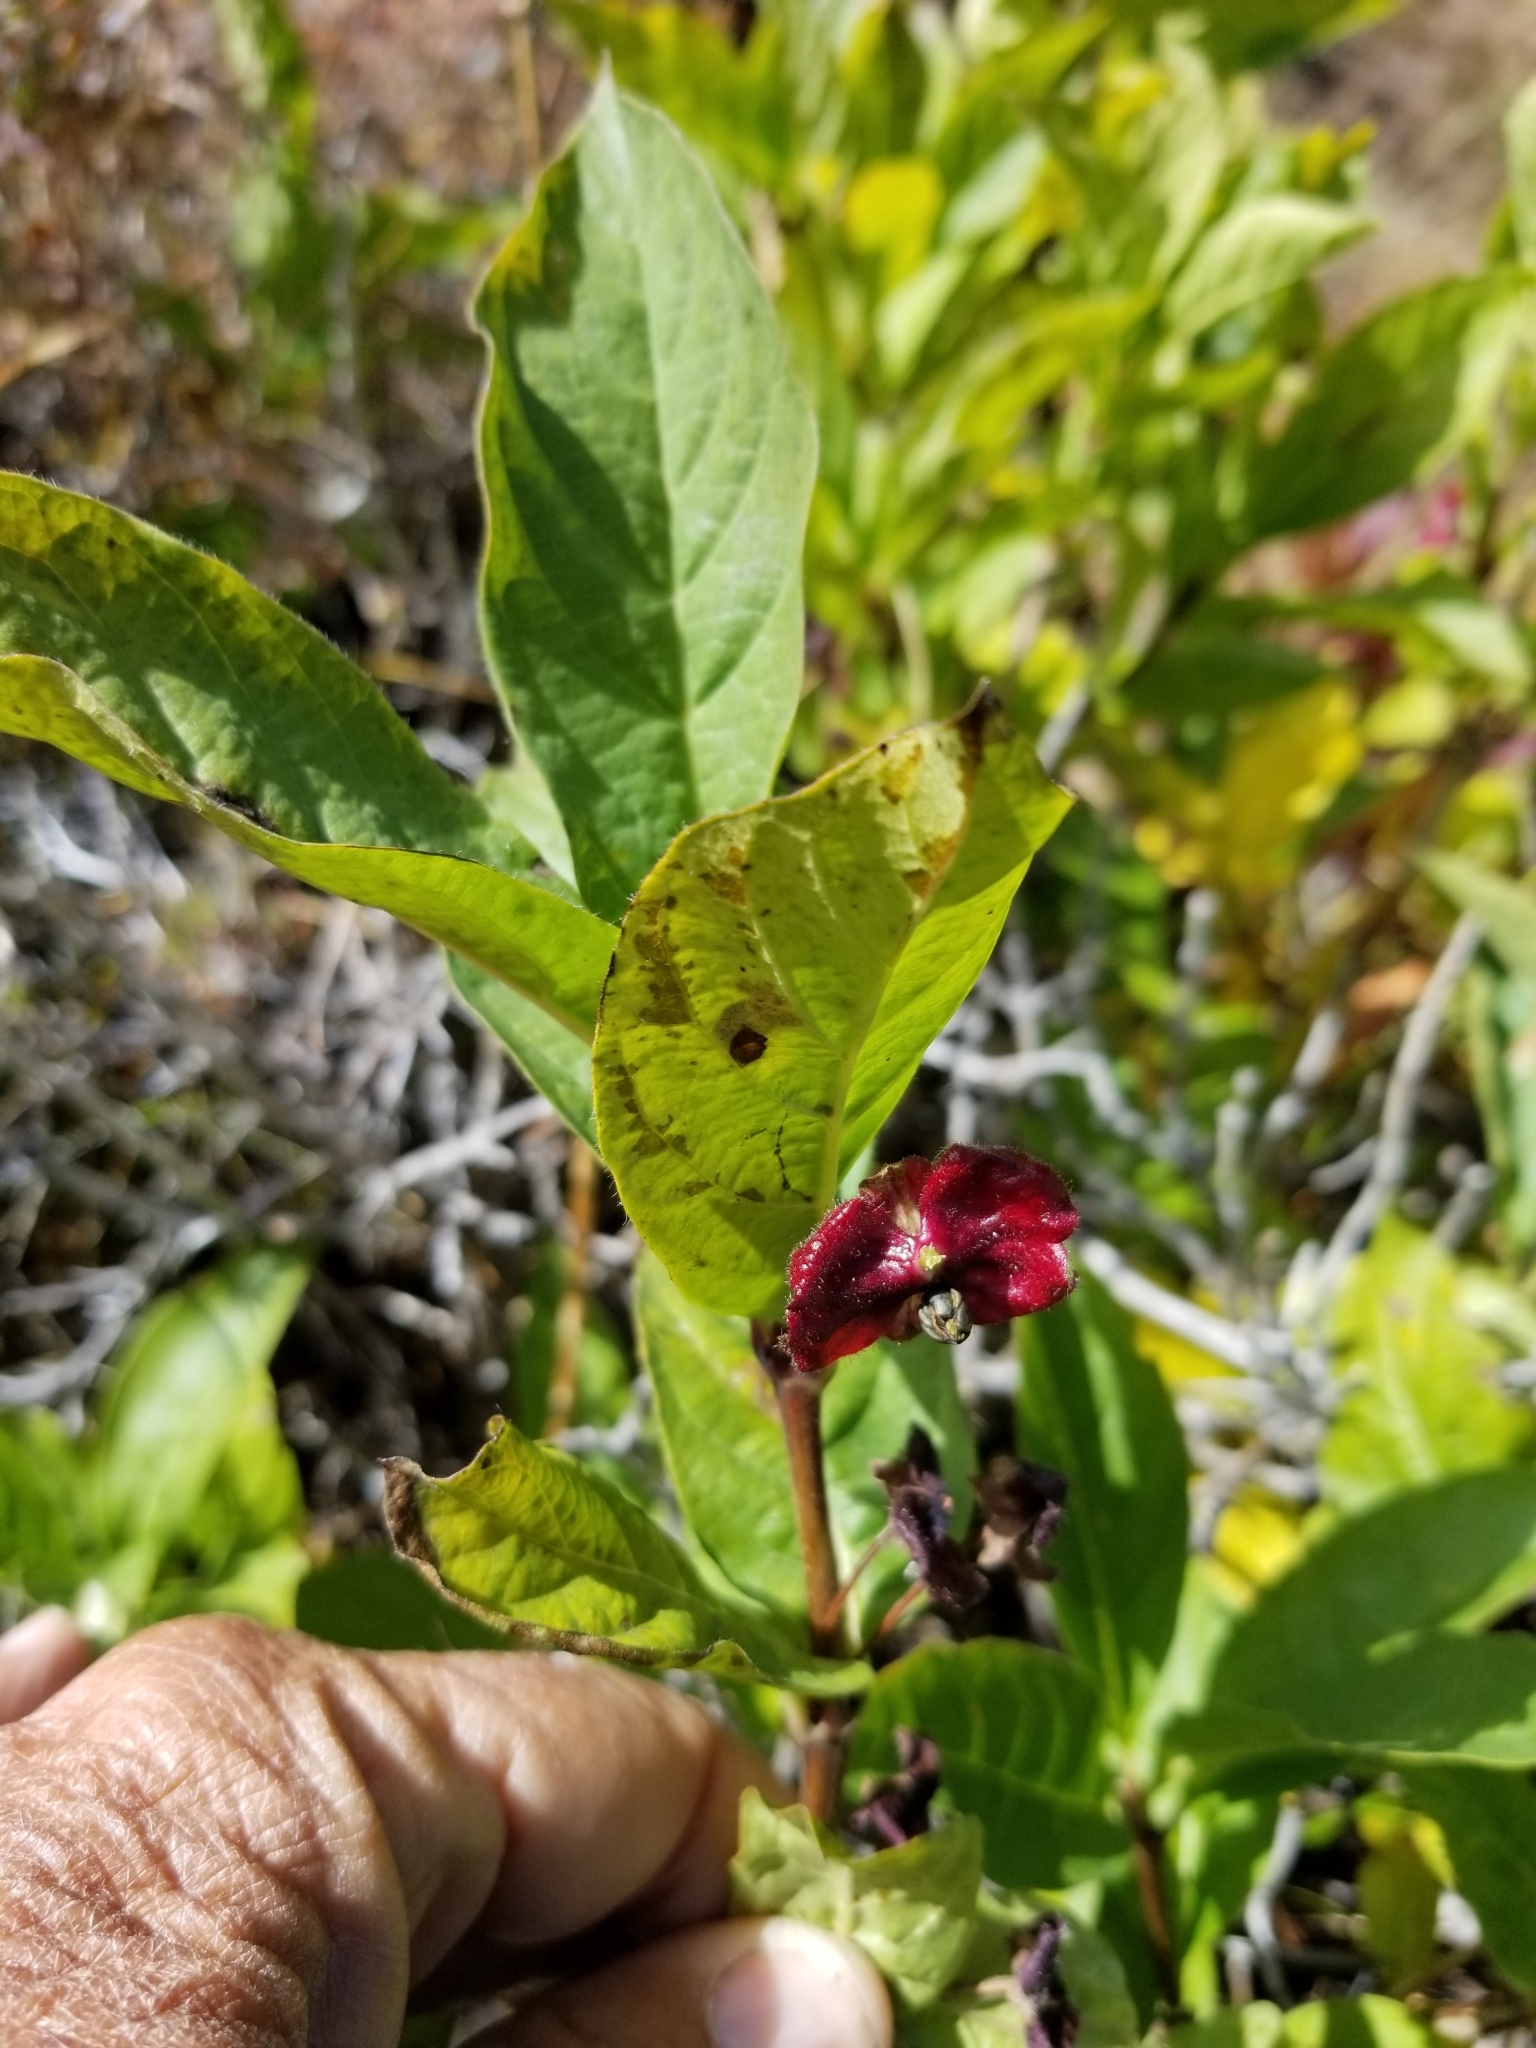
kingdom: Plantae
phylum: Tracheophyta
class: Magnoliopsida
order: Dipsacales
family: Caprifoliaceae
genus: Lonicera
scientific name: Lonicera involucrata
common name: Californian honeysuckle
